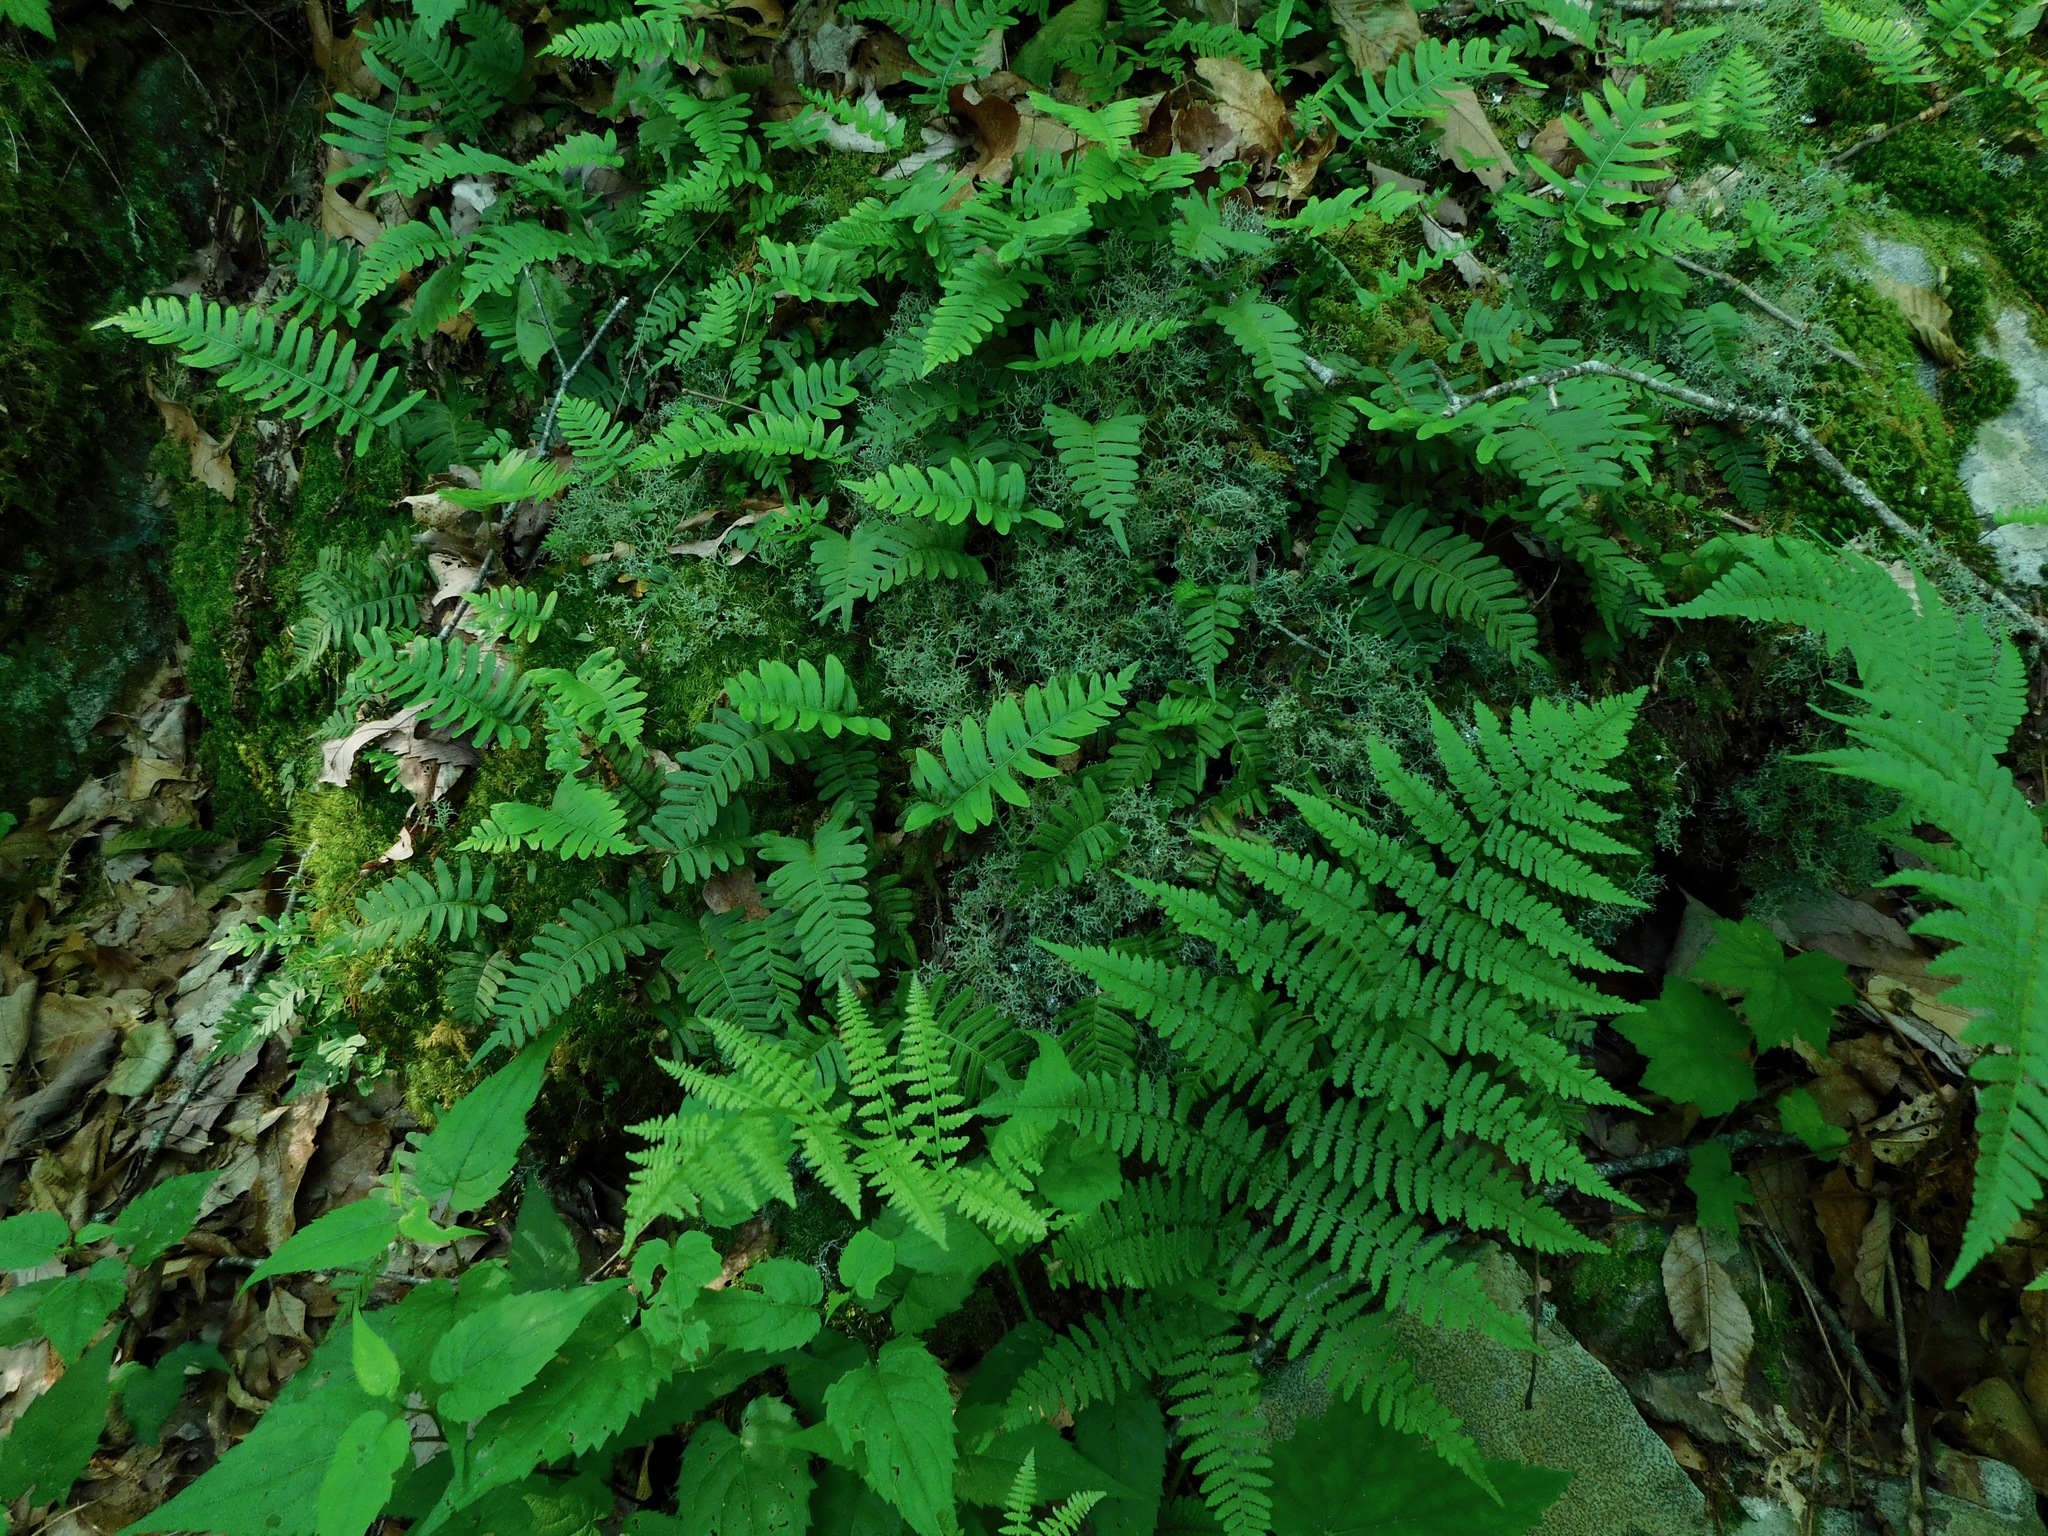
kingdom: Plantae
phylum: Tracheophyta
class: Polypodiopsida
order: Polypodiales
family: Polypodiaceae
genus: Polypodium
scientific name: Polypodium virginianum
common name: American wall fern
